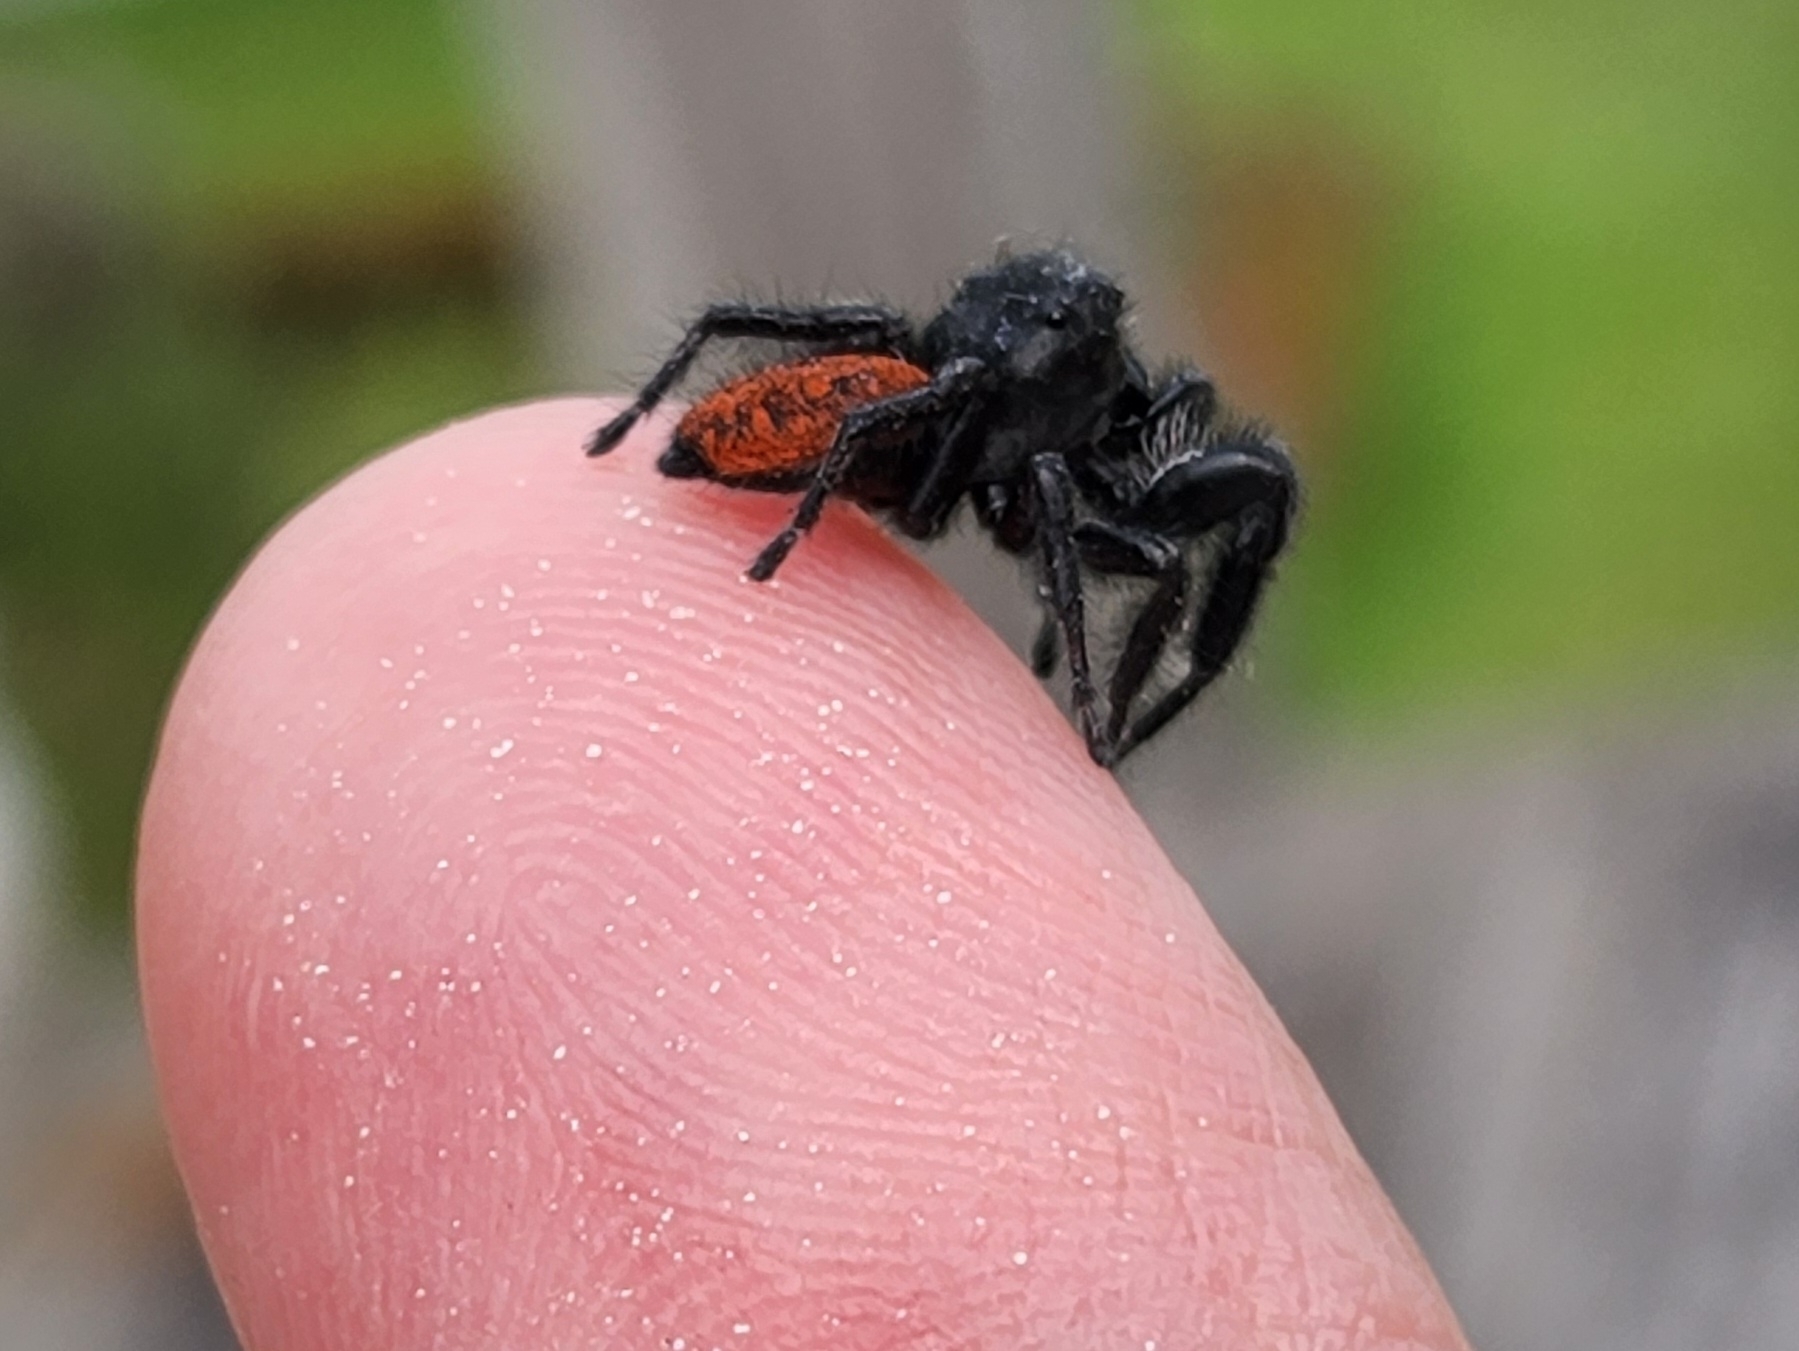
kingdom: Animalia
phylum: Arthropoda
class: Arachnida
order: Araneae
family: Salticidae
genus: Phidippus
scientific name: Phidippus johnsoni
